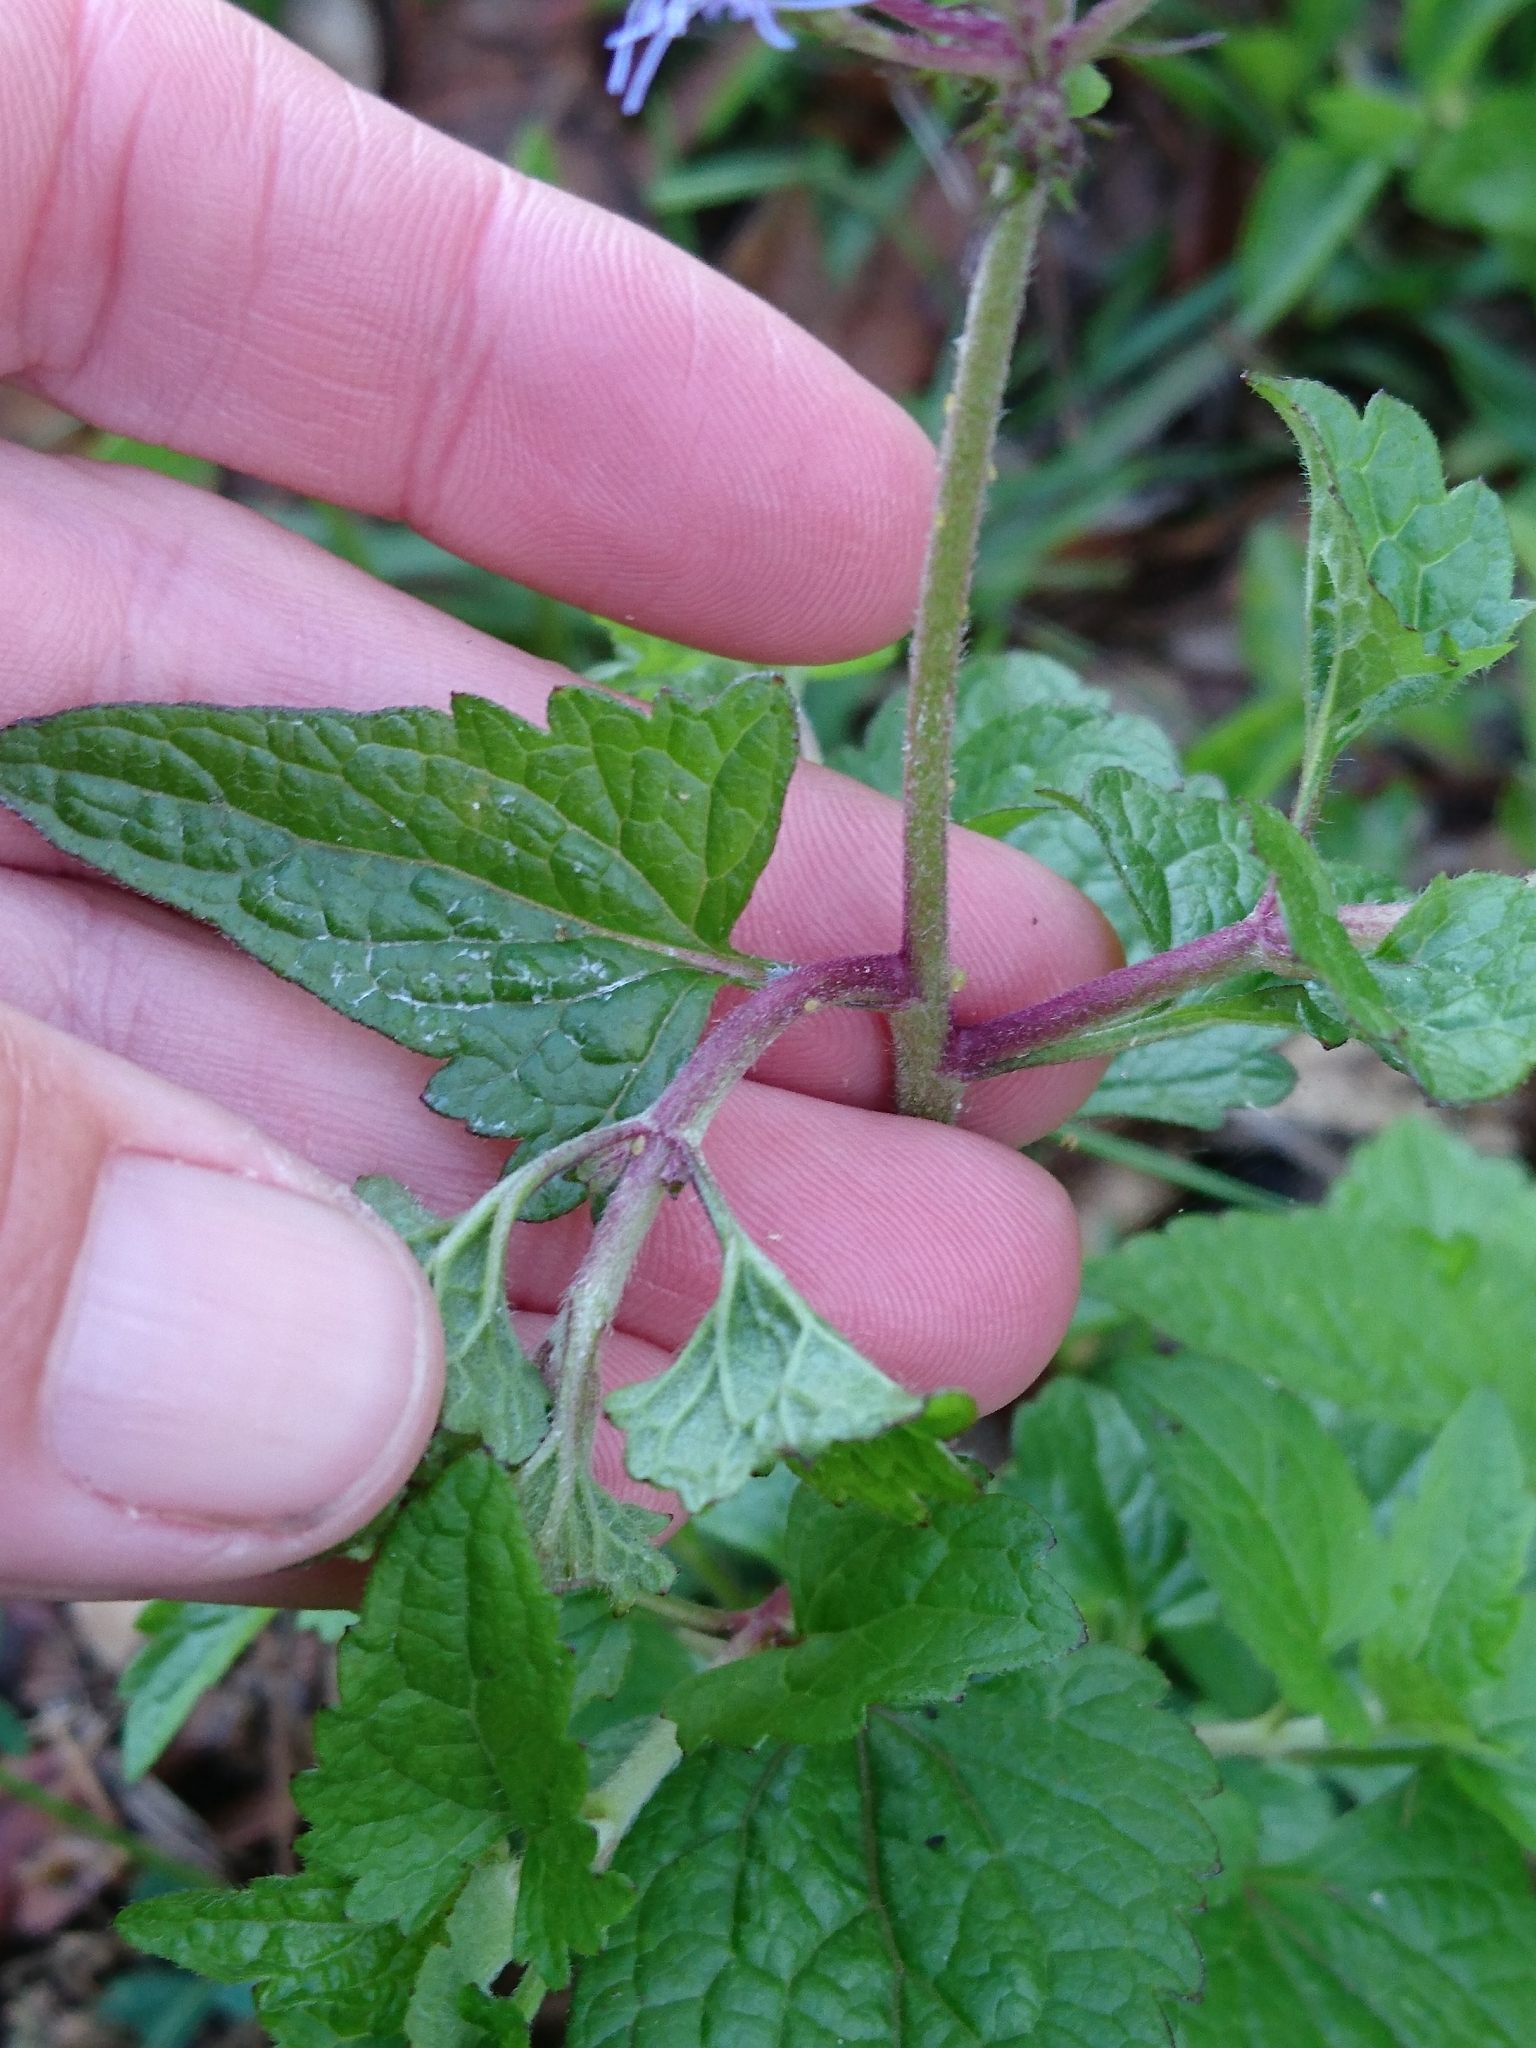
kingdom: Plantae
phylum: Tracheophyta
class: Magnoliopsida
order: Asterales
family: Asteraceae
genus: Conoclinium
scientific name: Conoclinium coelestinum
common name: Blue mistflower
